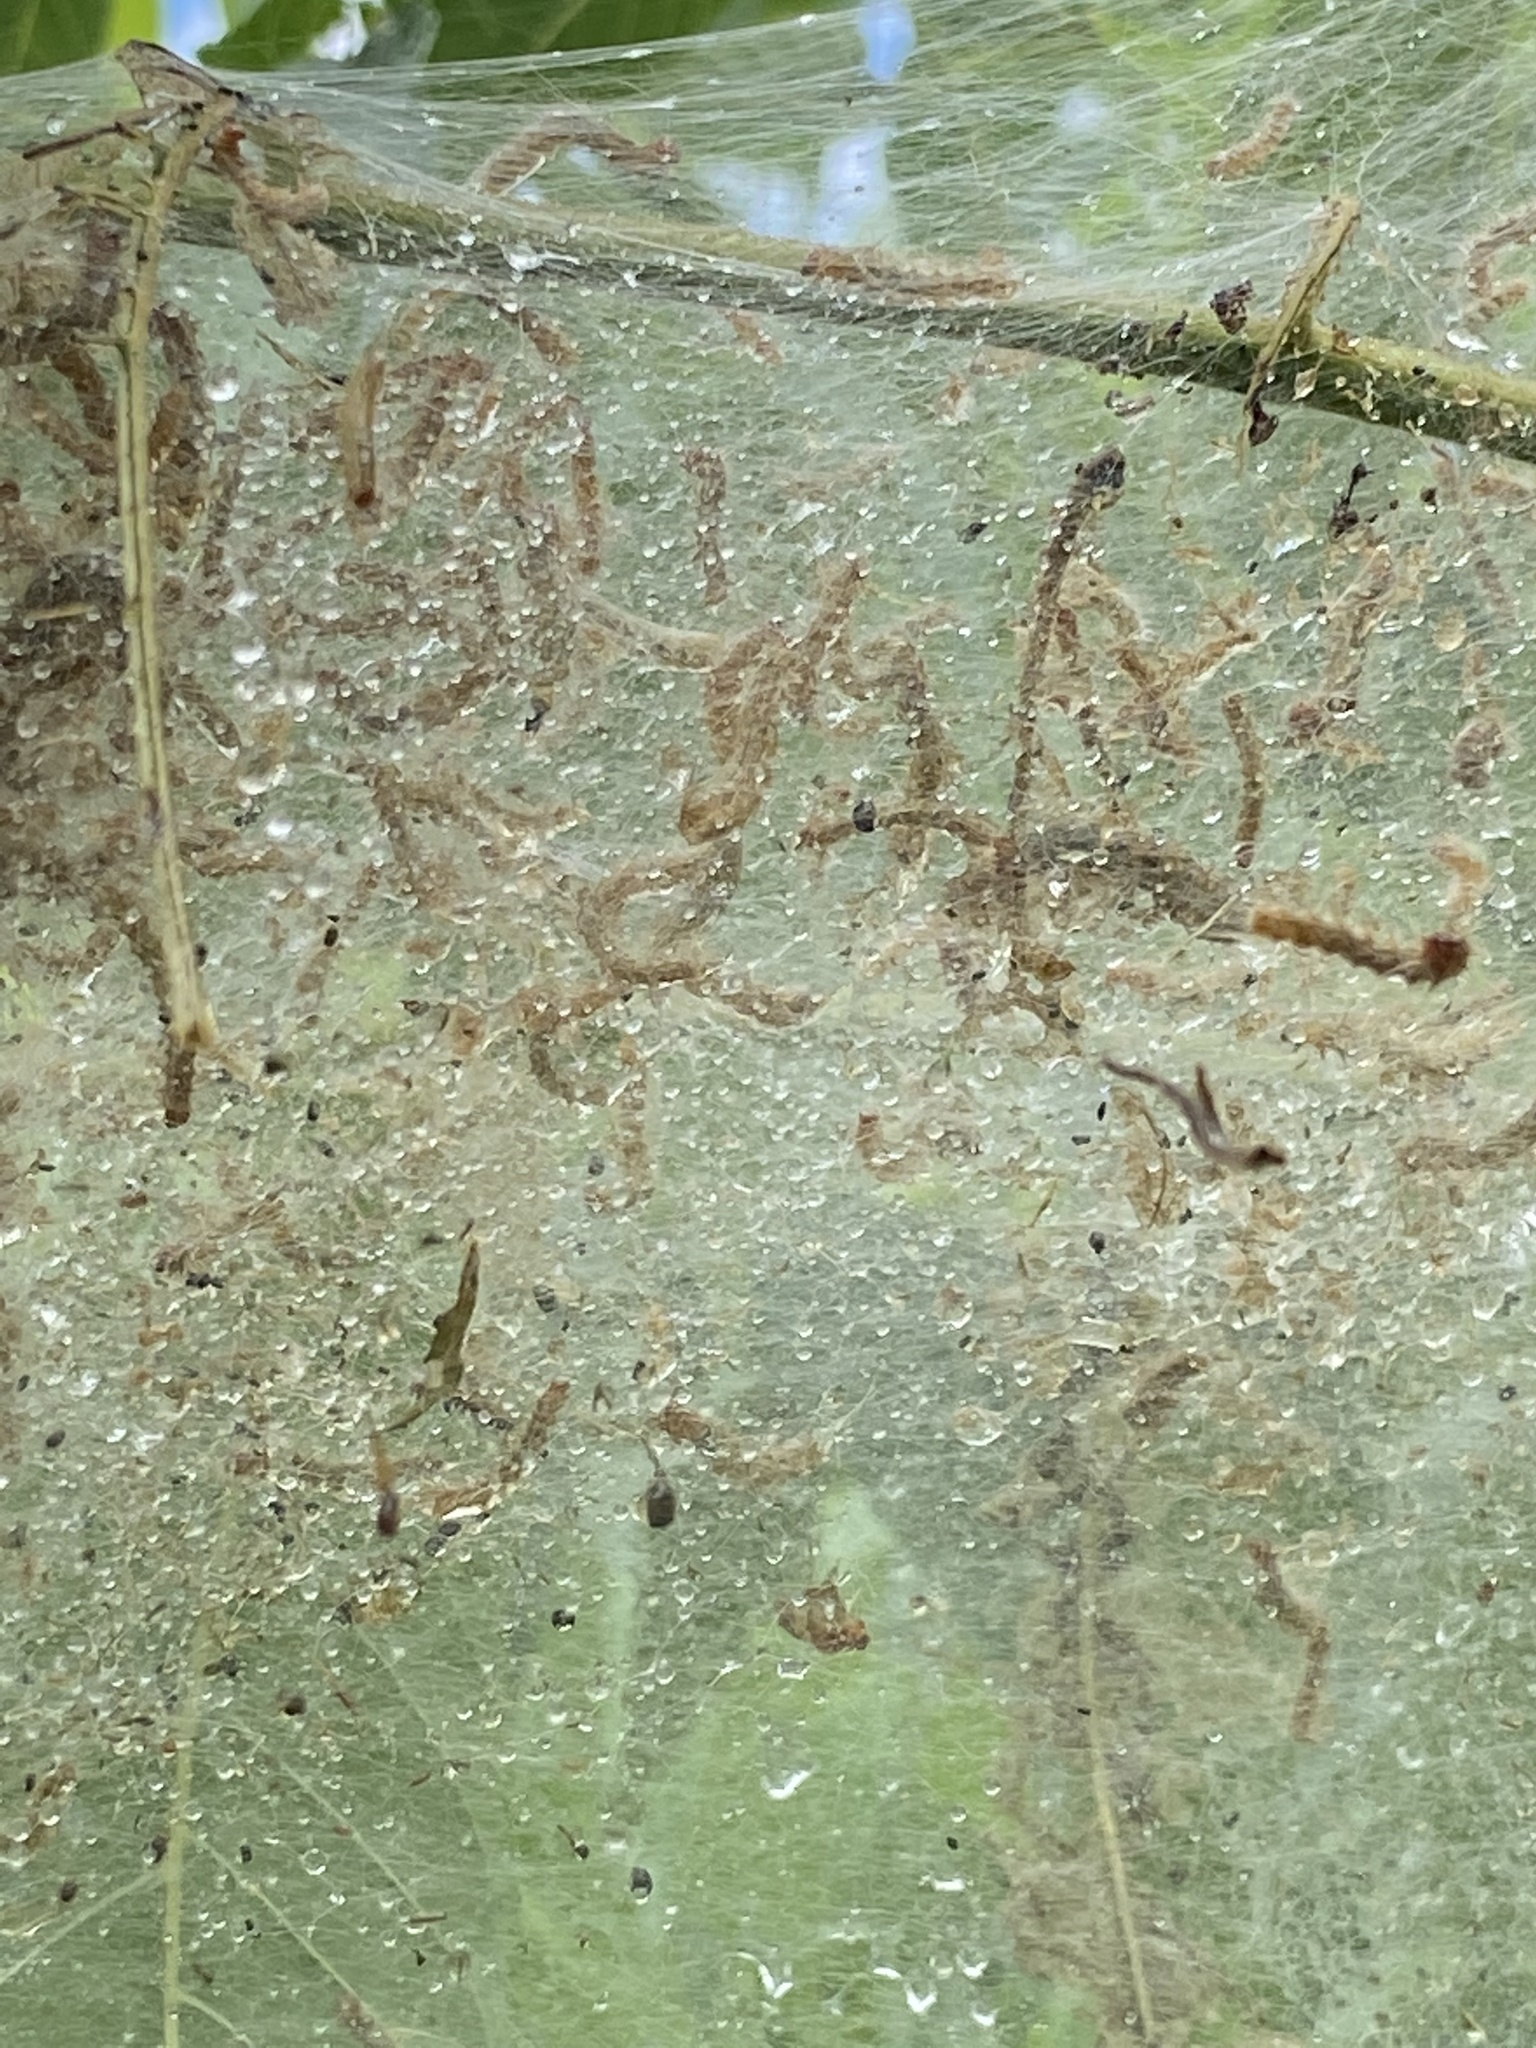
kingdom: Animalia
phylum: Arthropoda
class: Insecta
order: Lepidoptera
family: Erebidae
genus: Hyphantria
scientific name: Hyphantria cunea
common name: American white moth
